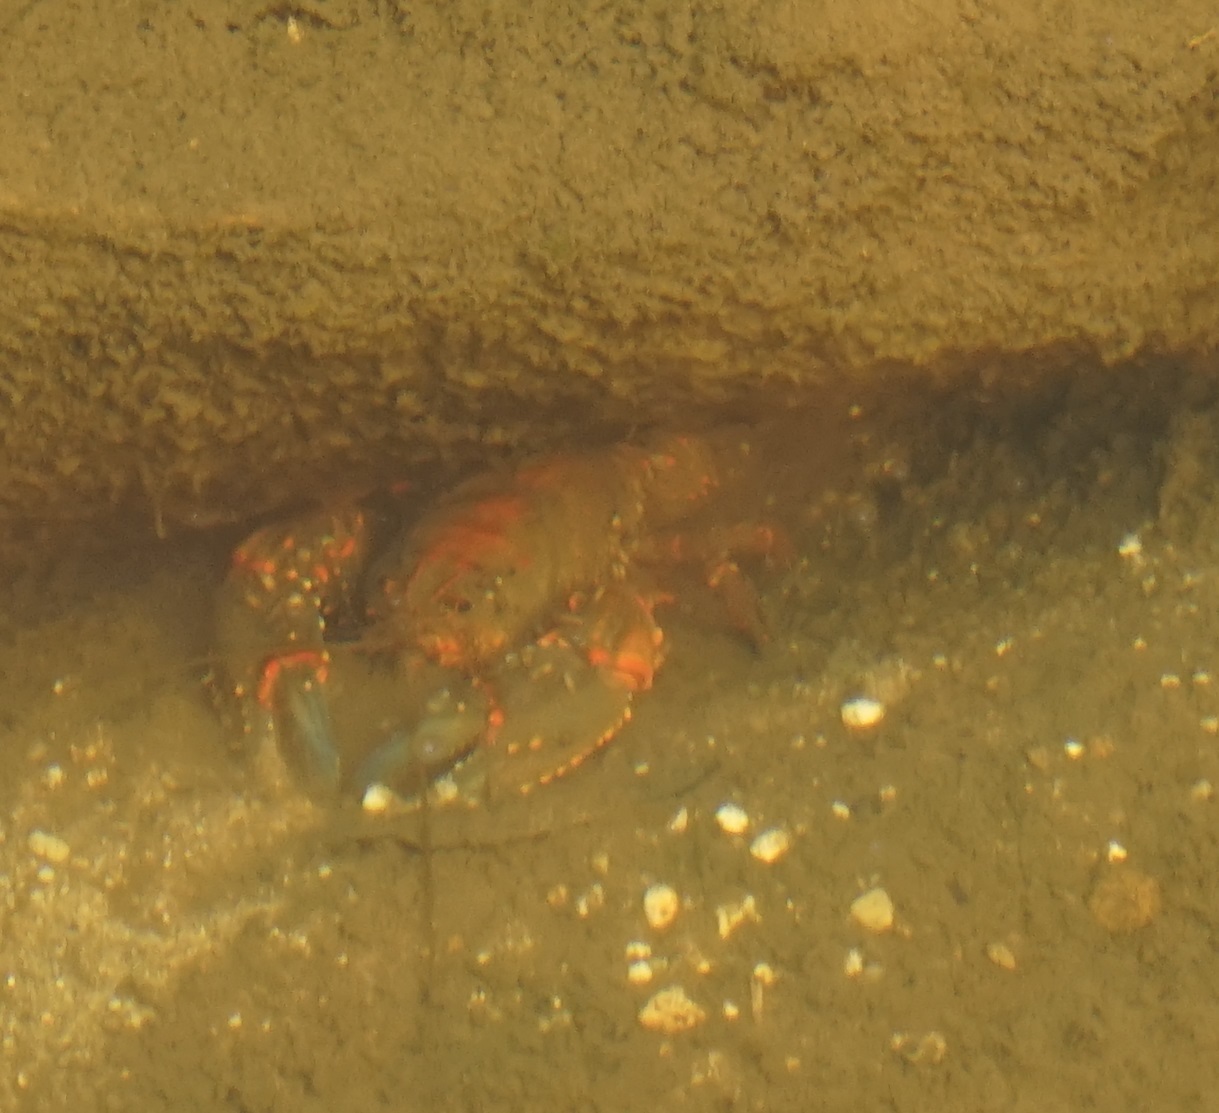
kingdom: Animalia
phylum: Arthropoda
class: Malacostraca
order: Decapoda
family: Parastacidae
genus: Euastacus
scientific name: Euastacus spinifer
